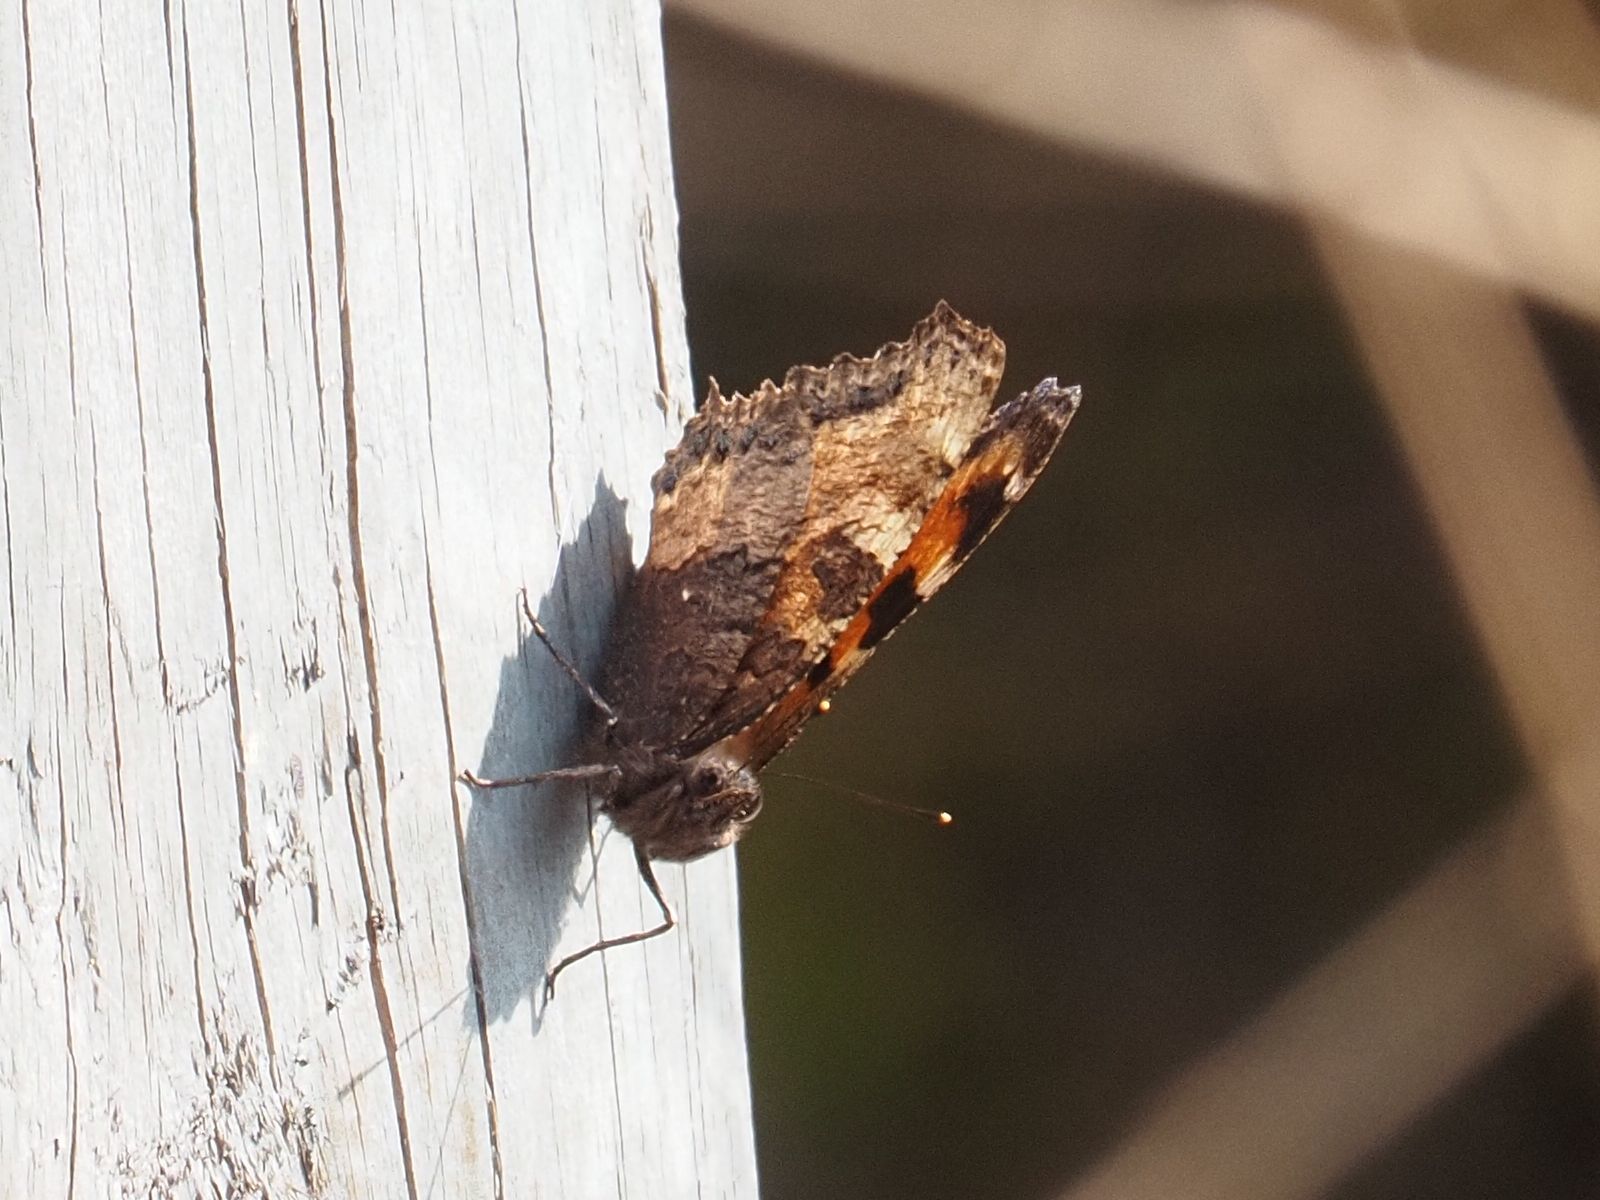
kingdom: Animalia
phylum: Arthropoda
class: Insecta
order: Lepidoptera
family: Nymphalidae
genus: Nymphalis
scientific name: Nymphalis polychloros
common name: Large tortoiseshell
